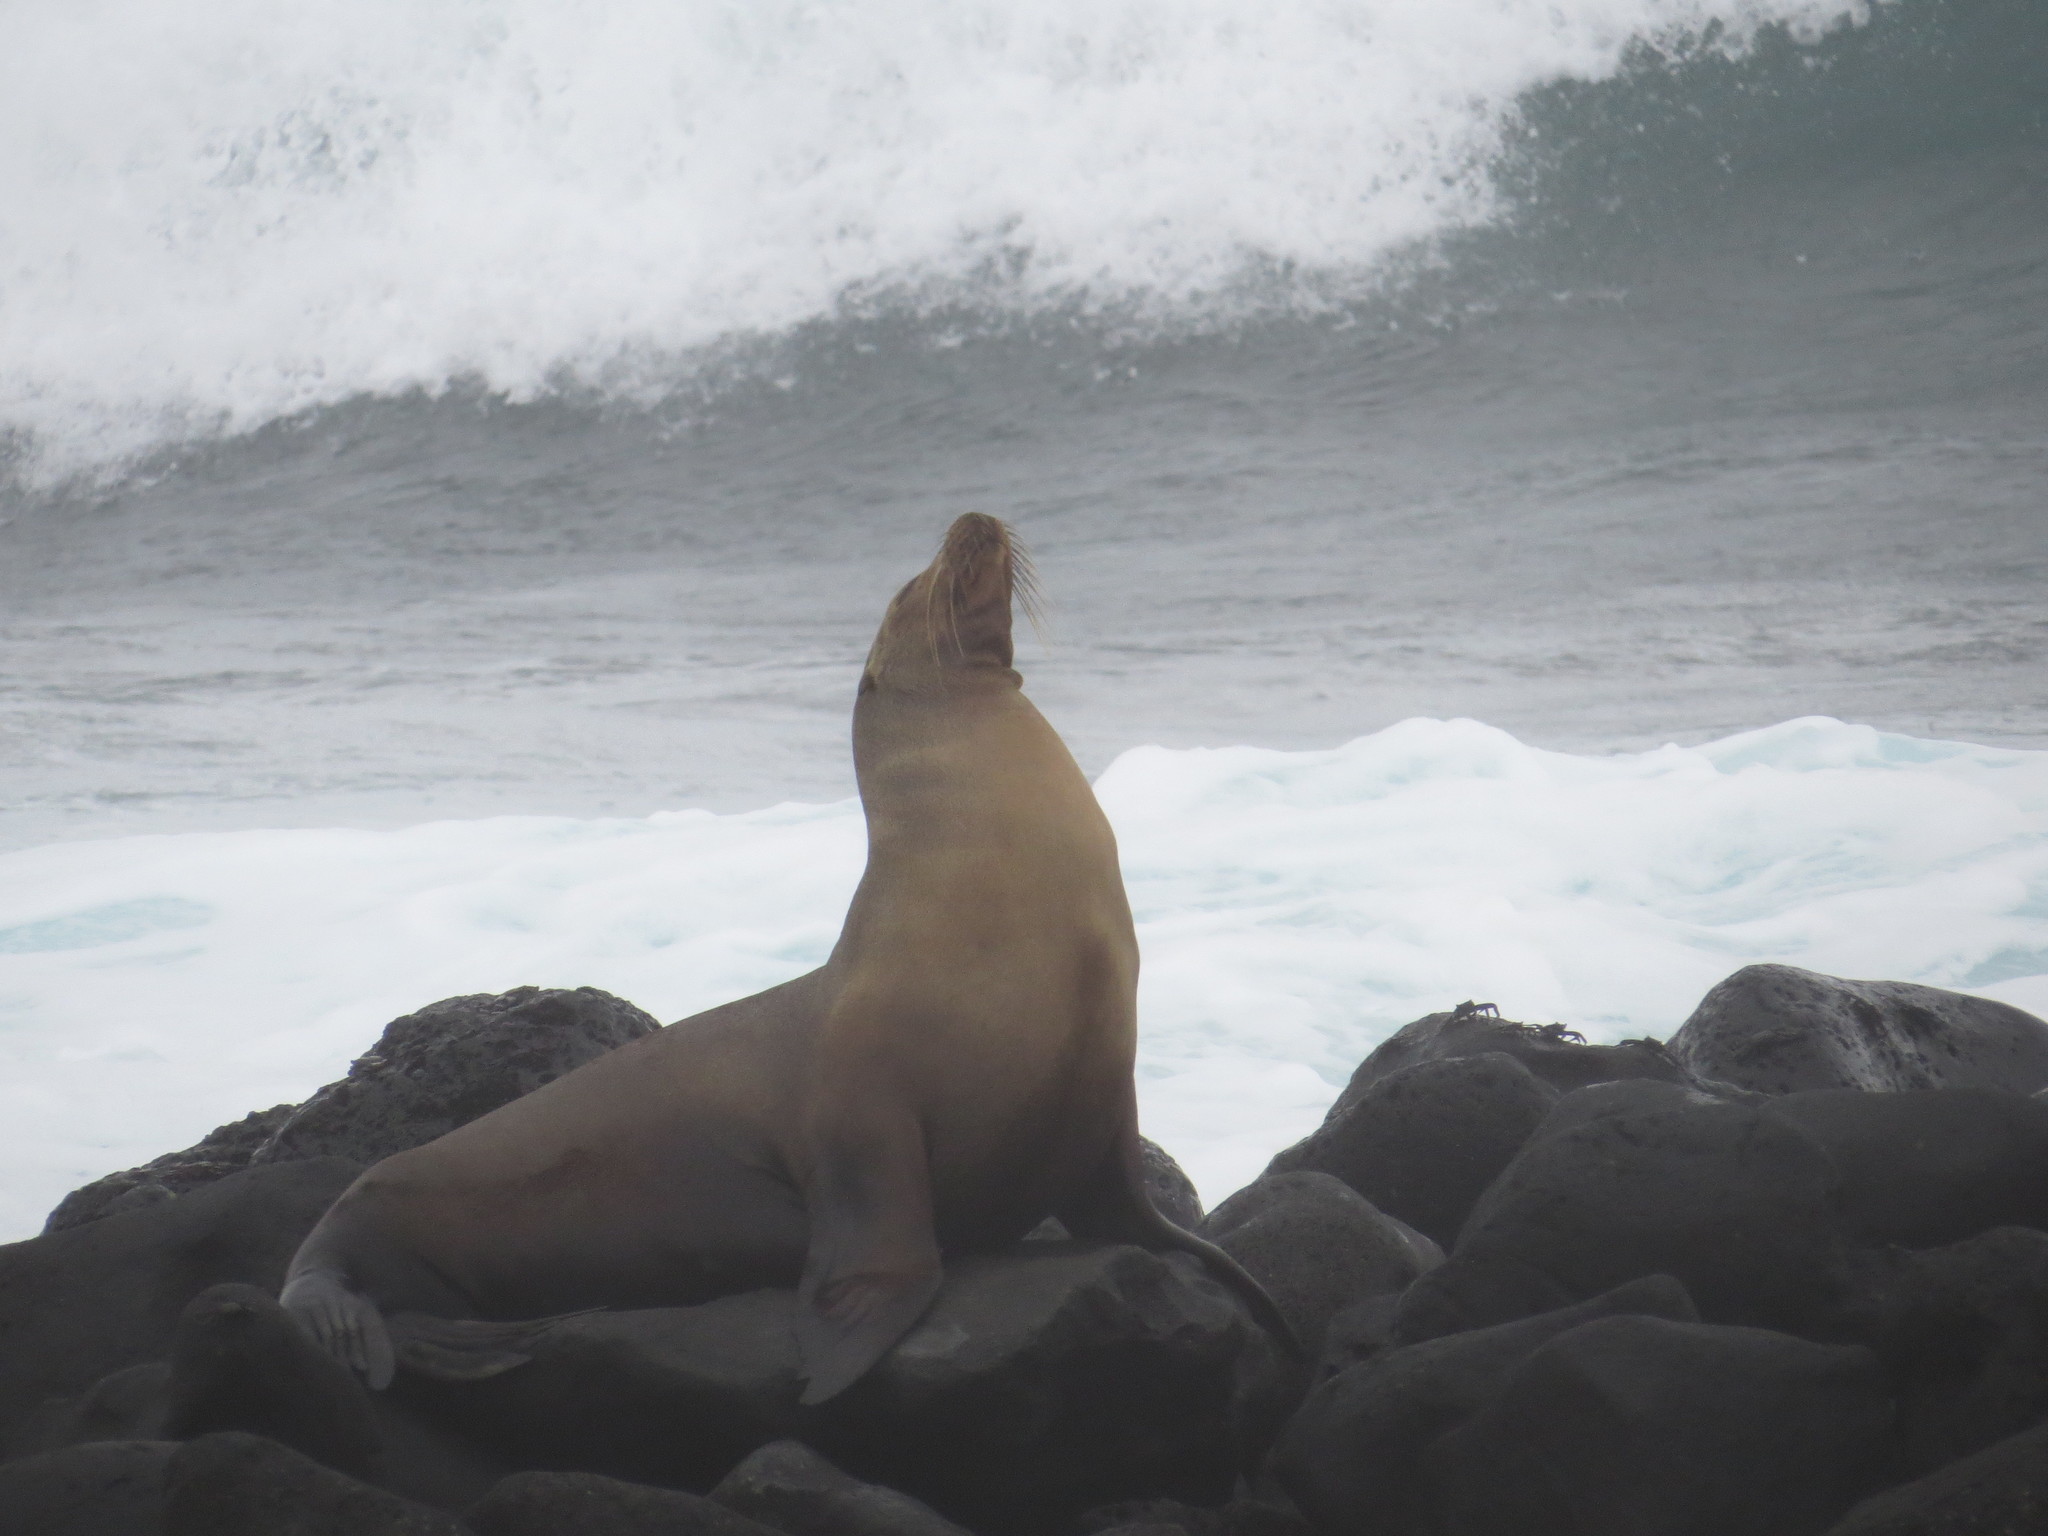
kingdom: Animalia
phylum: Chordata
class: Mammalia
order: Carnivora
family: Otariidae
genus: Zalophus
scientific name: Zalophus wollebaeki
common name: Galapagos sea lion
